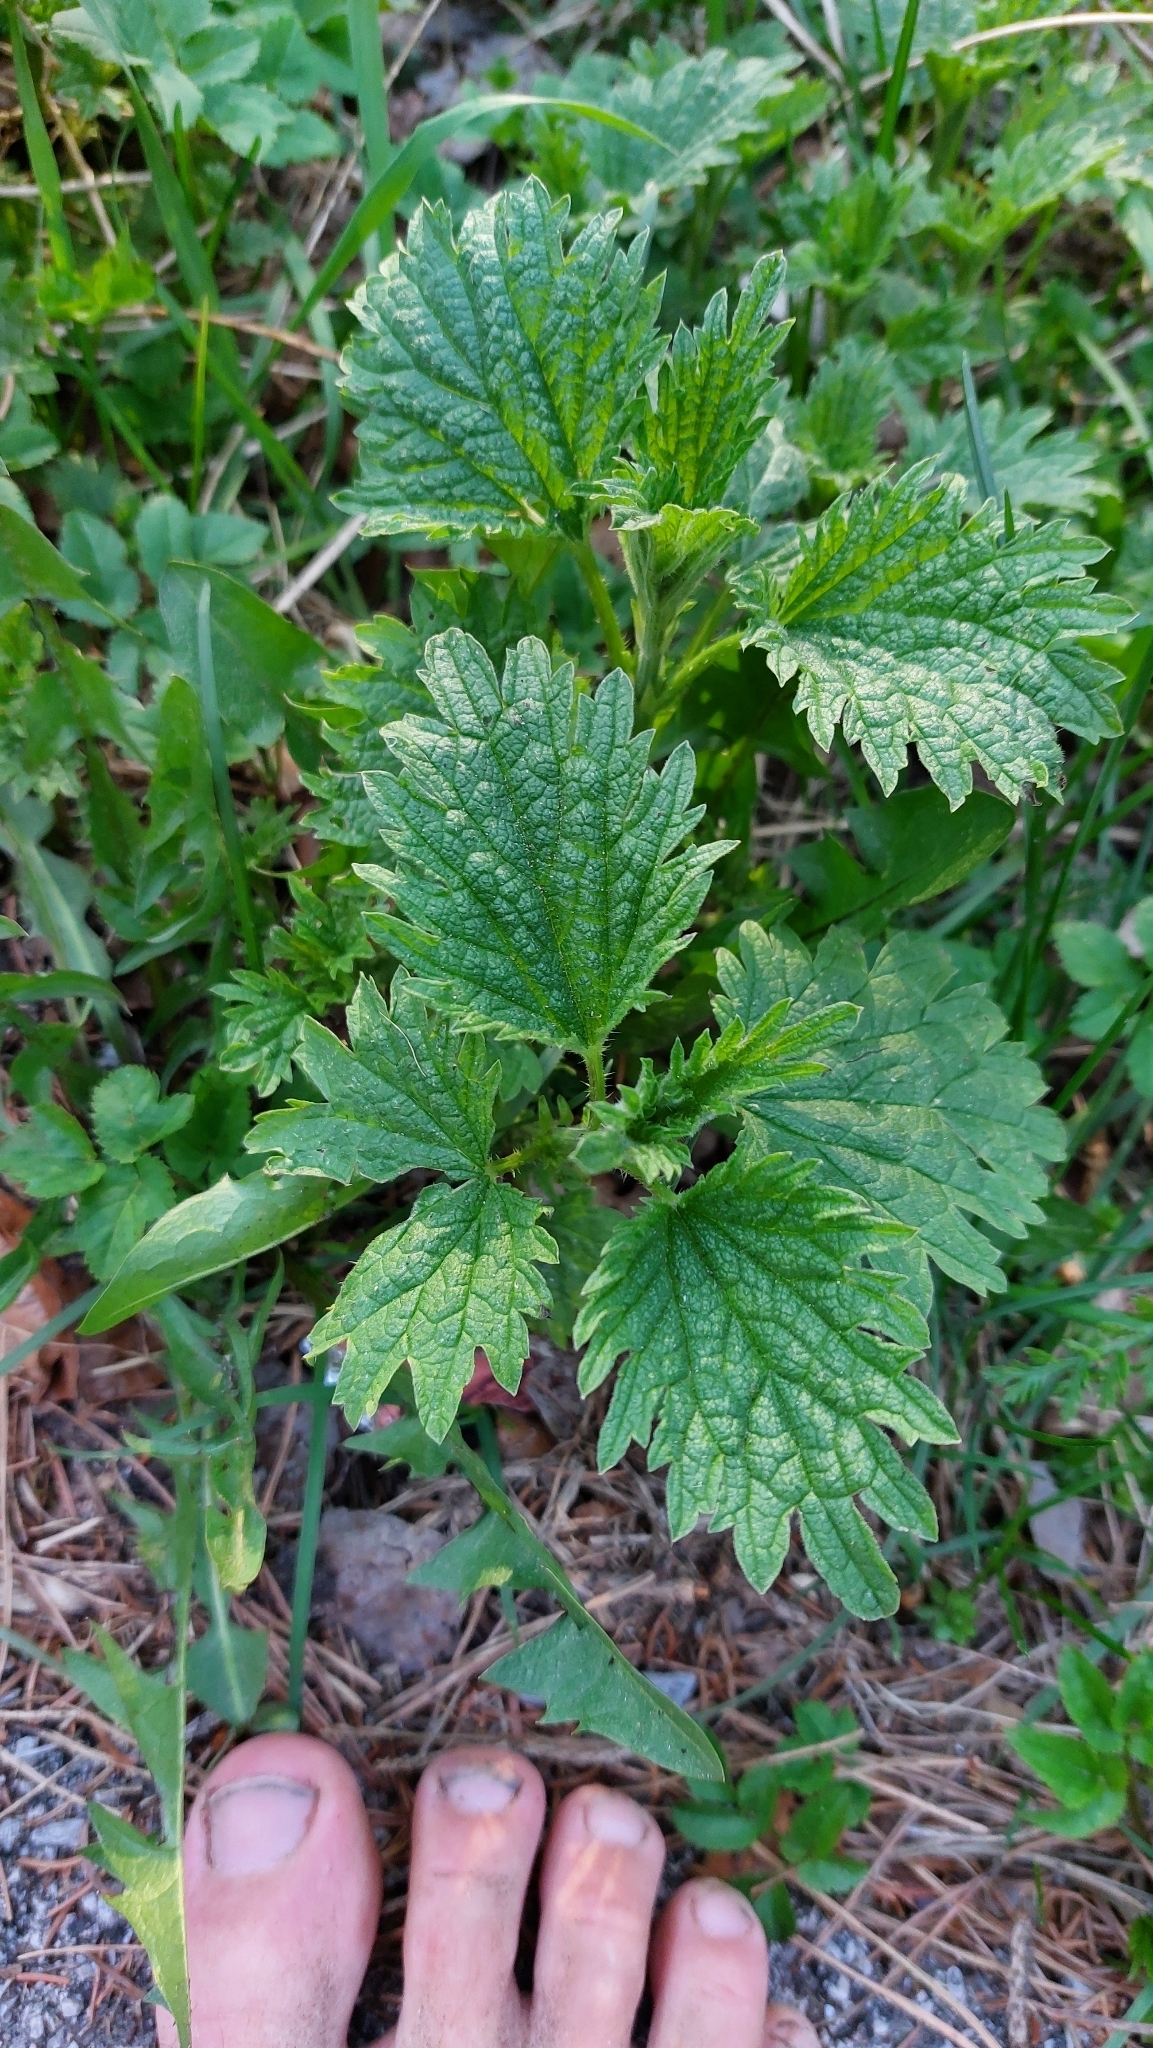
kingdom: Plantae
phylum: Tracheophyta
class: Magnoliopsida
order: Rosales
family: Urticaceae
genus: Urtica
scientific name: Urtica dioica
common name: Common nettle
